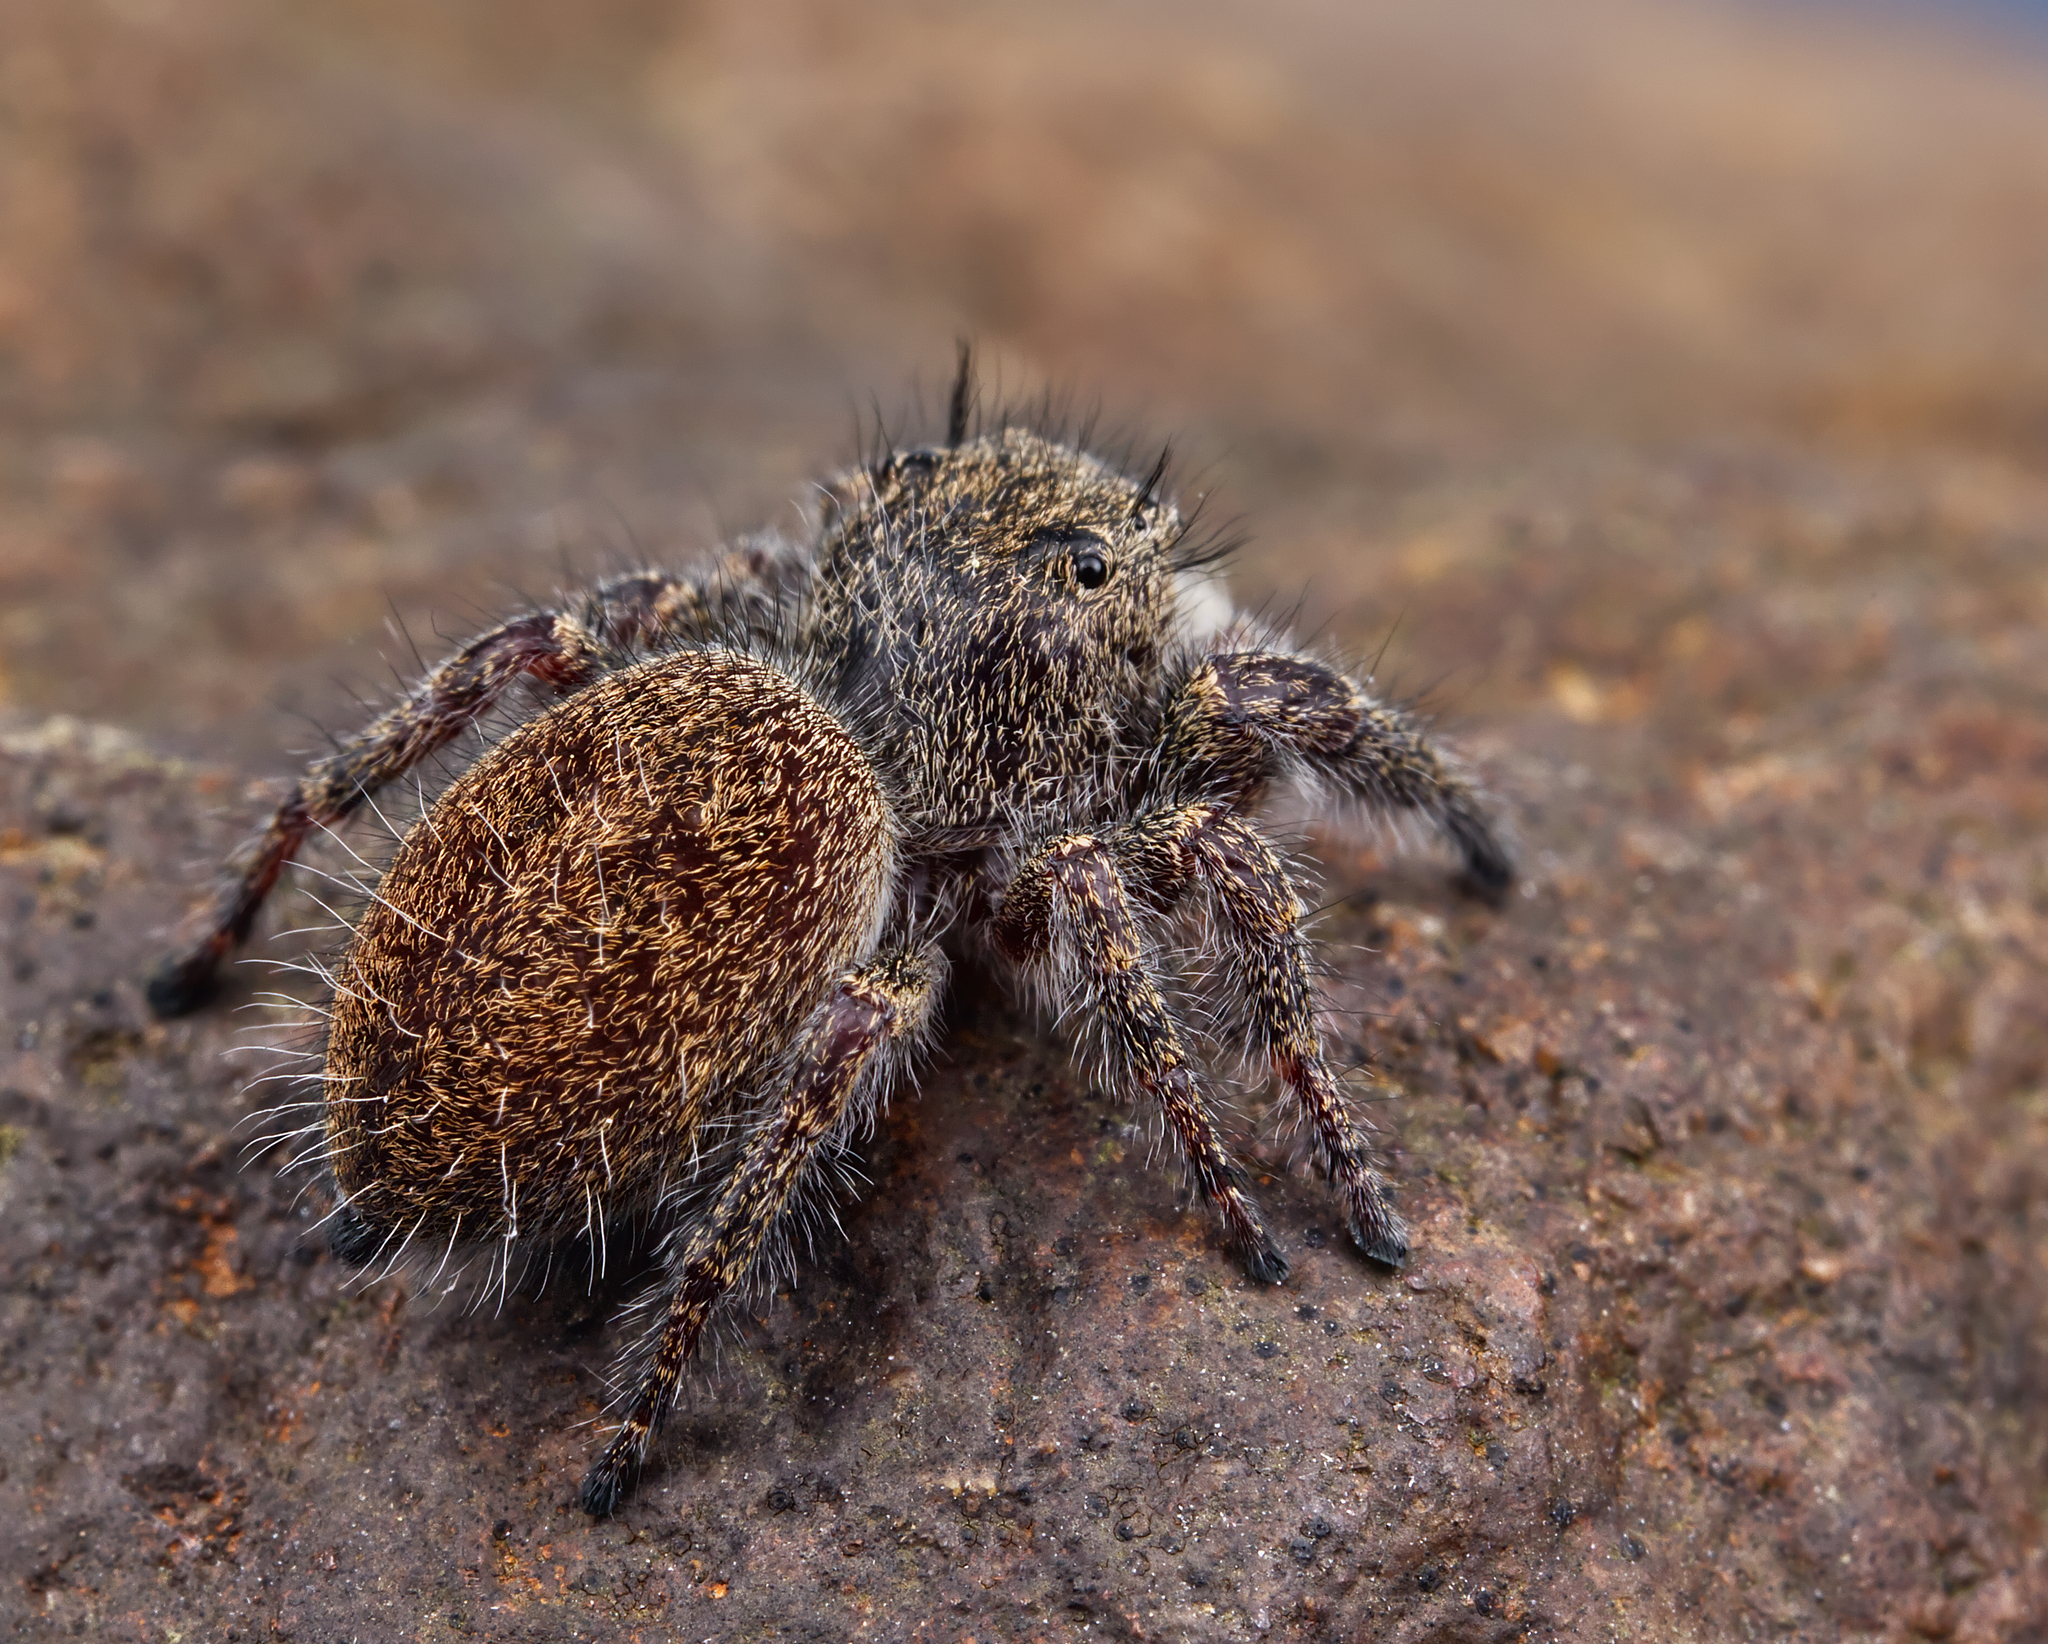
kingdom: Animalia
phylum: Arthropoda
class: Arachnida
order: Araneae
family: Salticidae
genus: Phidippus
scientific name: Phidippus princeps
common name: Grayish jumping spider
